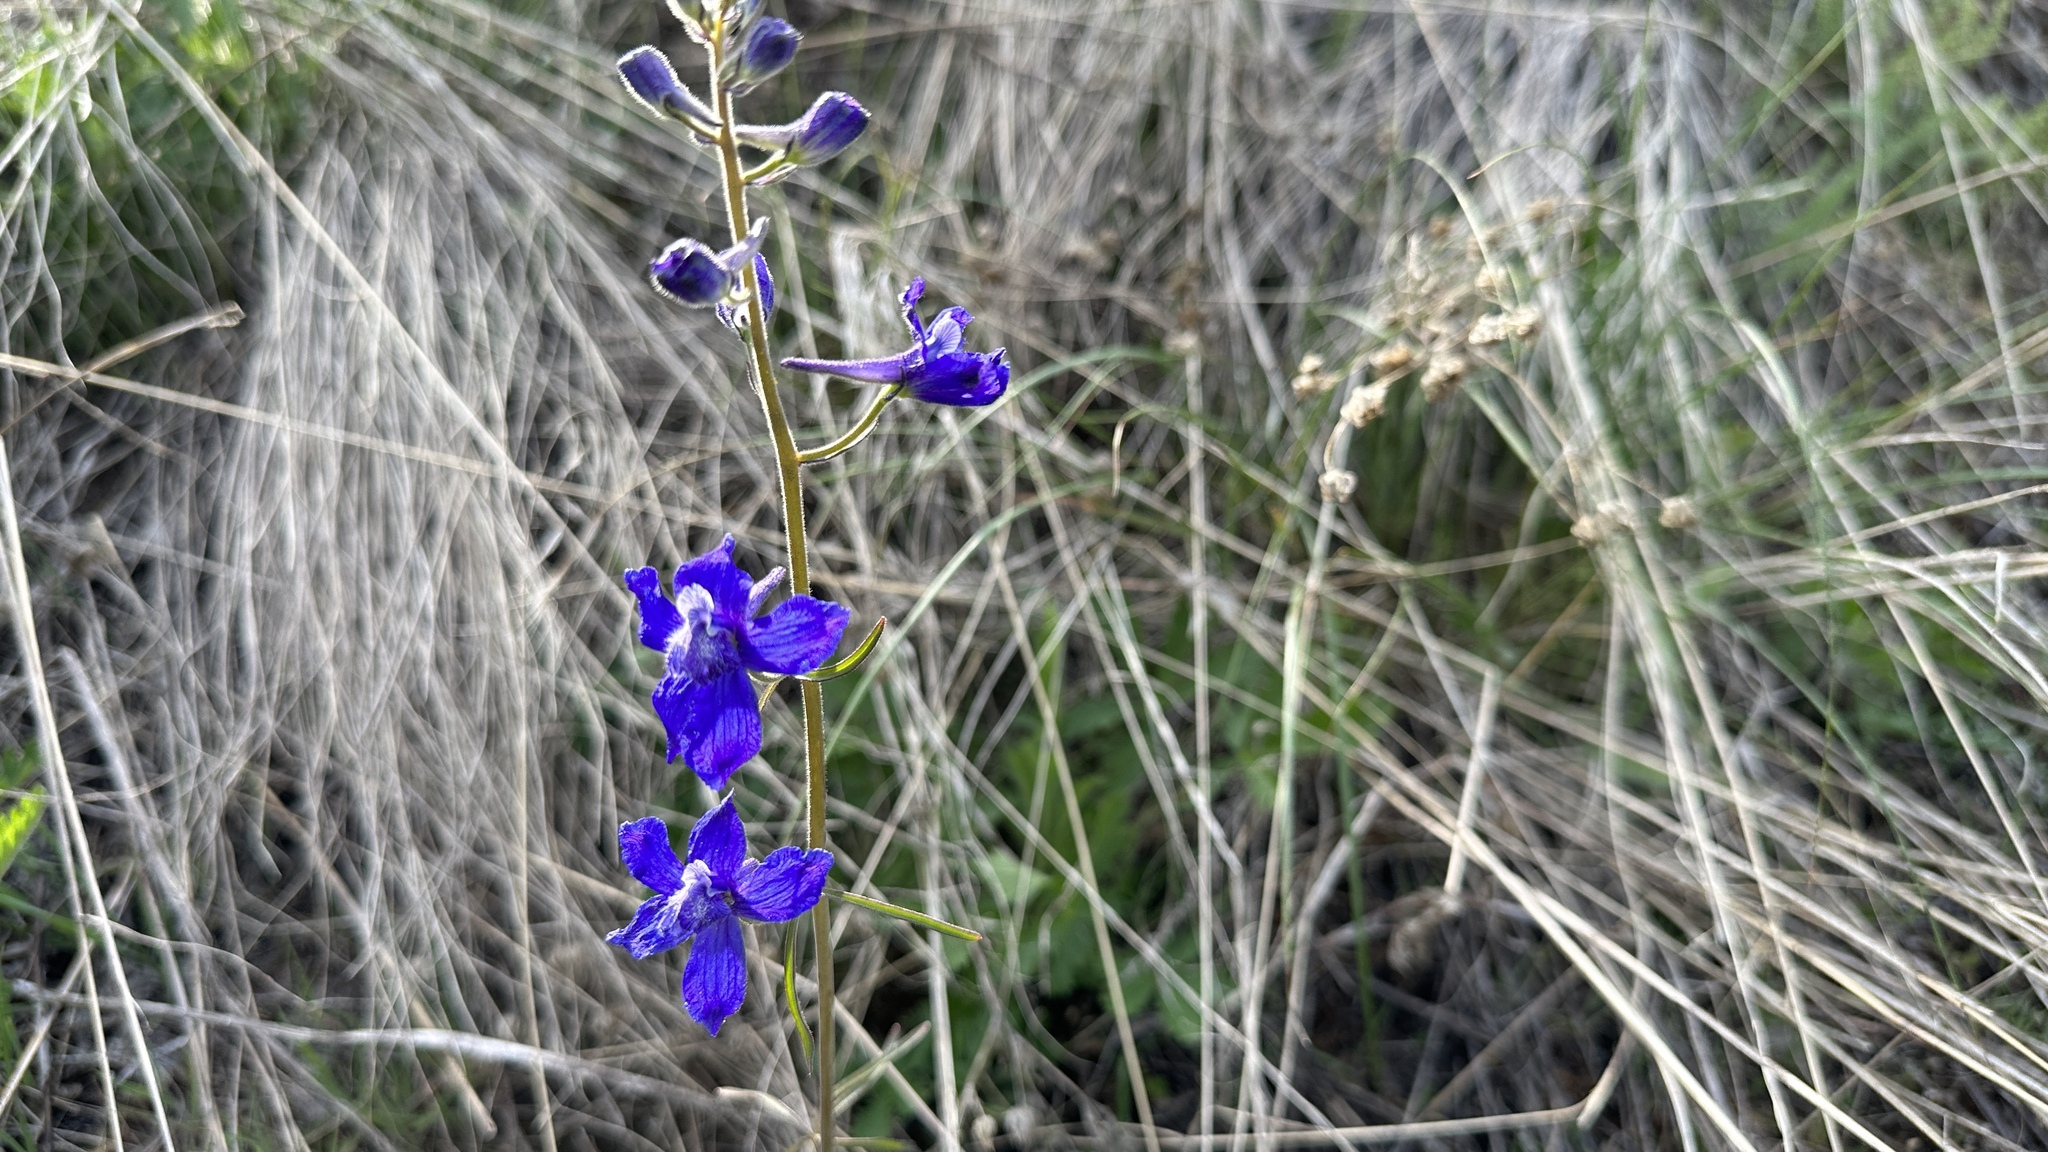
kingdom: Plantae
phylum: Tracheophyta
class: Magnoliopsida
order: Ranunculales
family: Ranunculaceae
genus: Delphinium
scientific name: Delphinium nuttallianum
